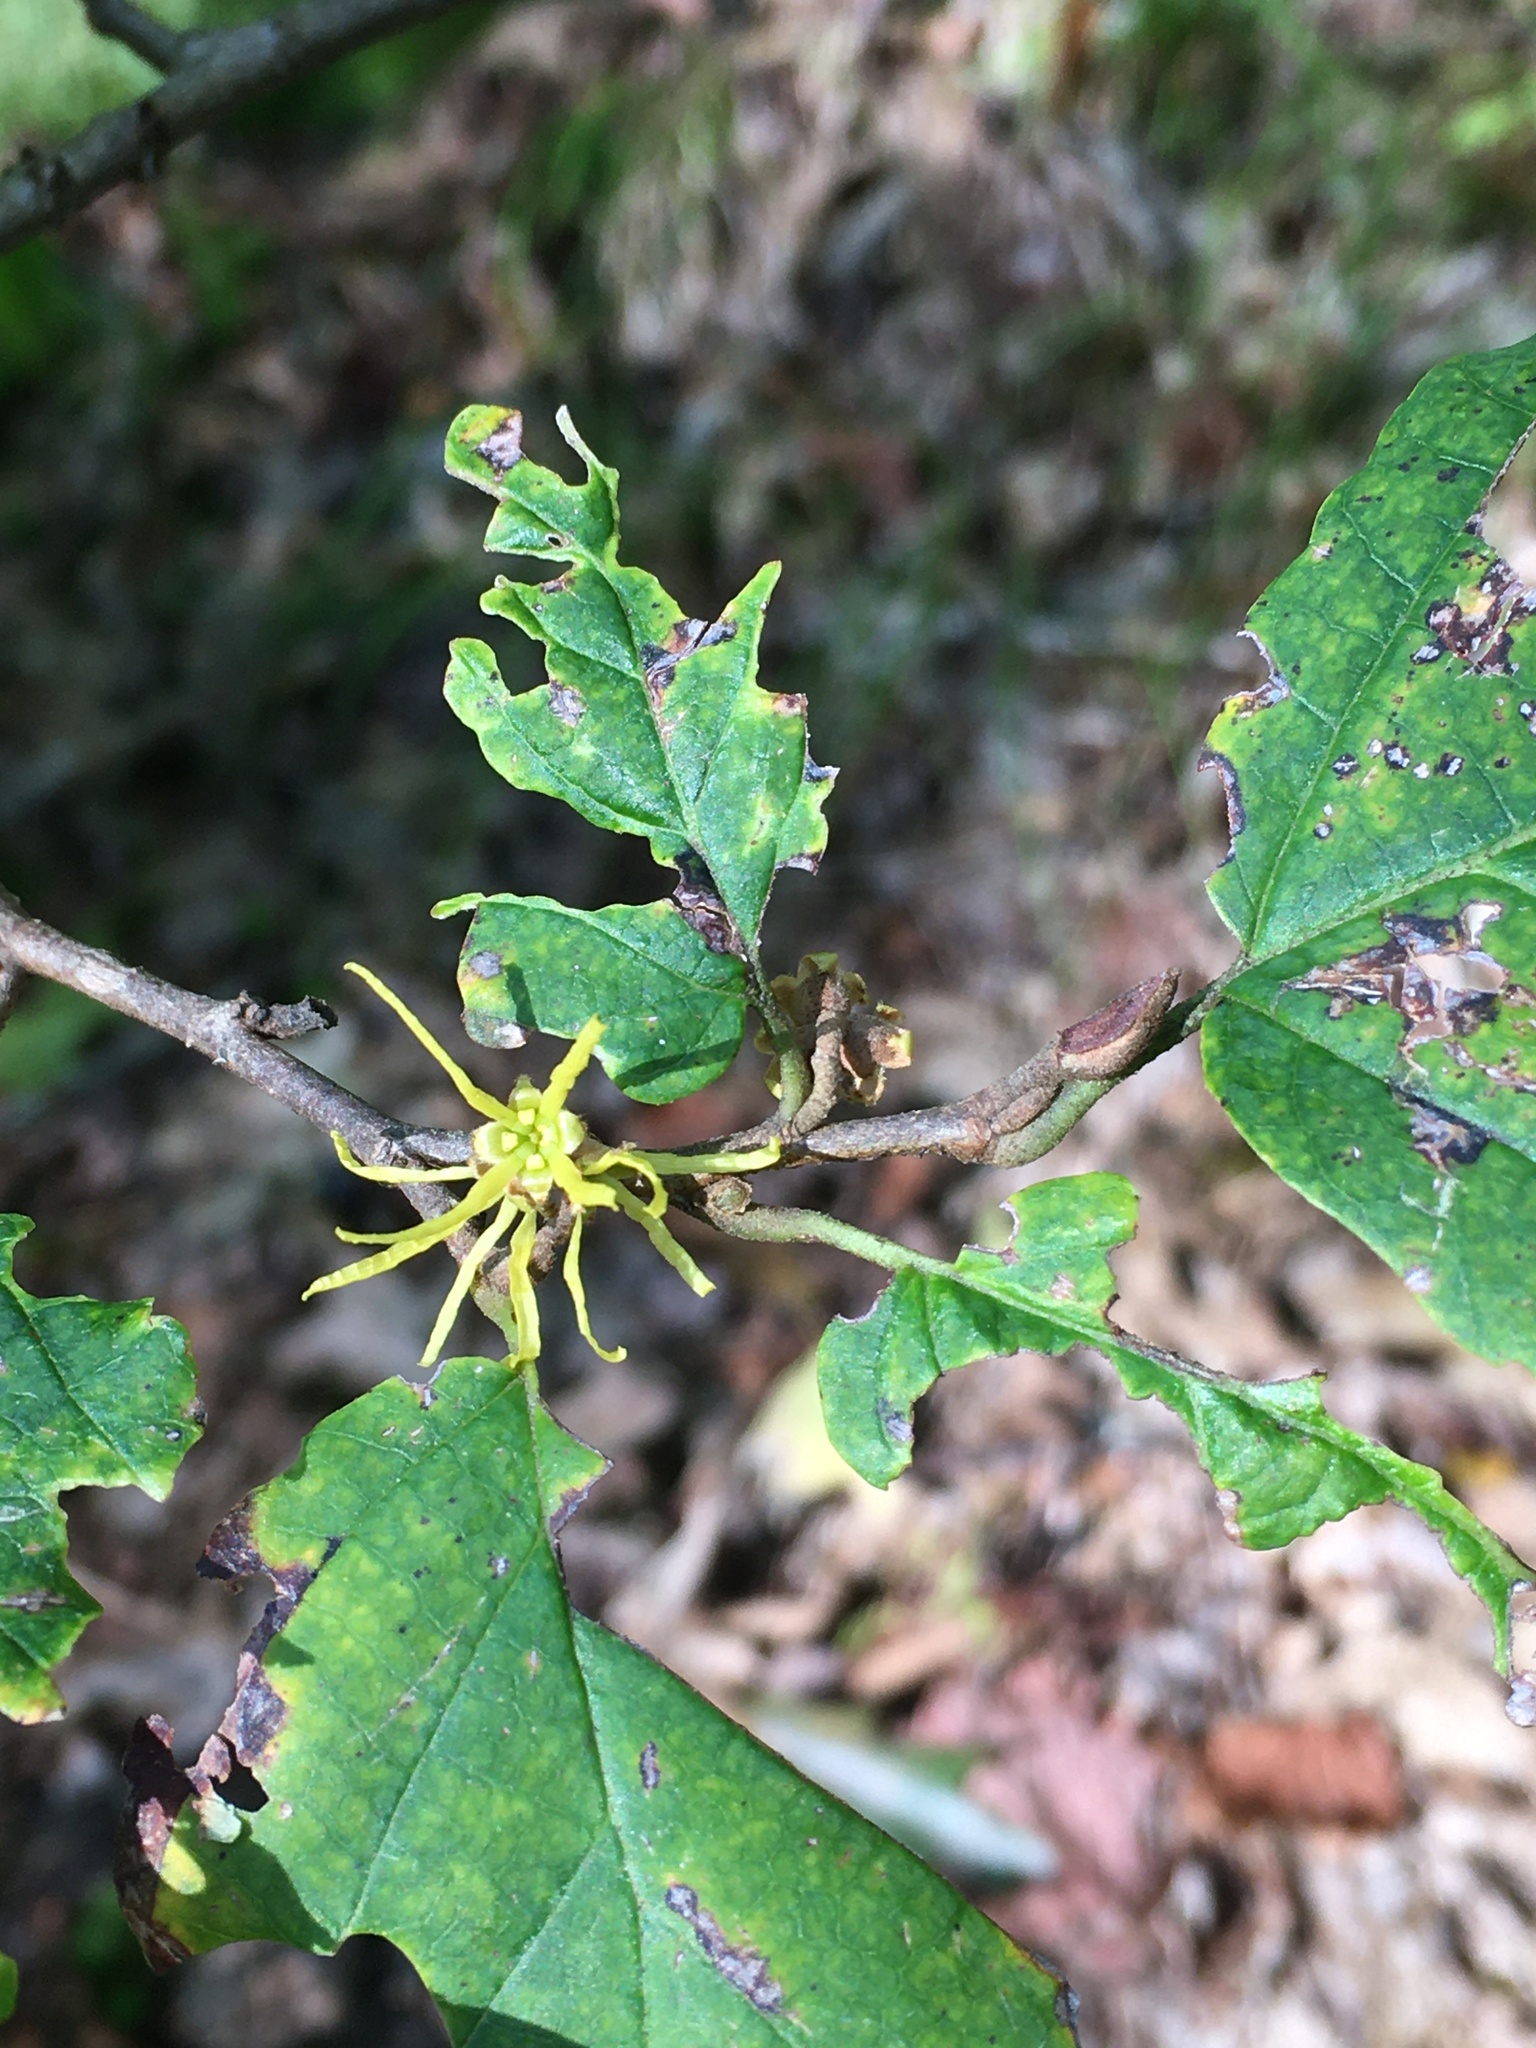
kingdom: Plantae
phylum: Tracheophyta
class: Magnoliopsida
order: Saxifragales
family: Hamamelidaceae
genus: Hamamelis
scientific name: Hamamelis virginiana
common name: Witch-hazel
